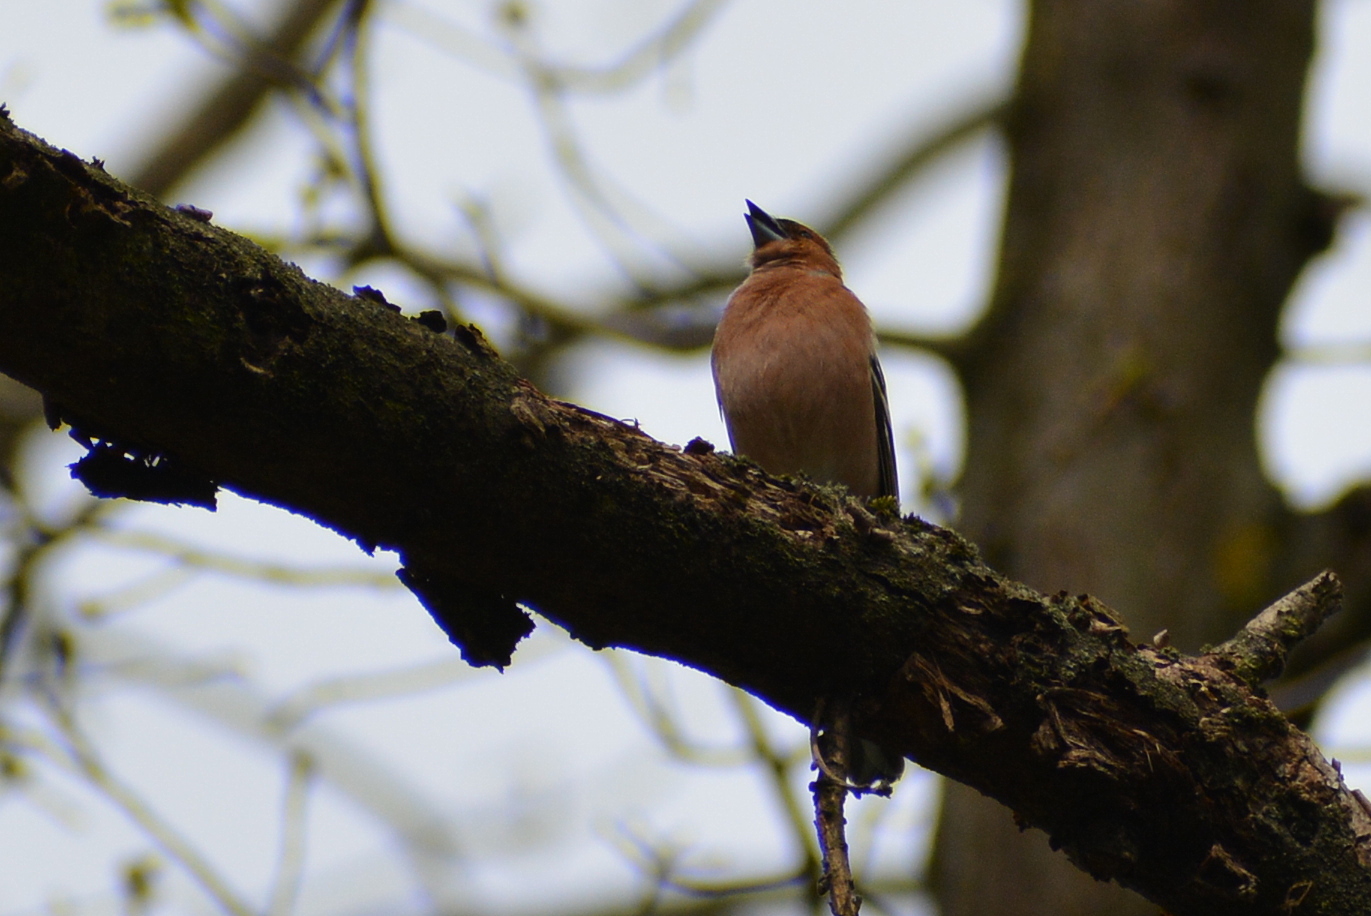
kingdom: Animalia
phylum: Chordata
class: Aves
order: Passeriformes
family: Fringillidae
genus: Fringilla
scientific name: Fringilla coelebs
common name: Common chaffinch
